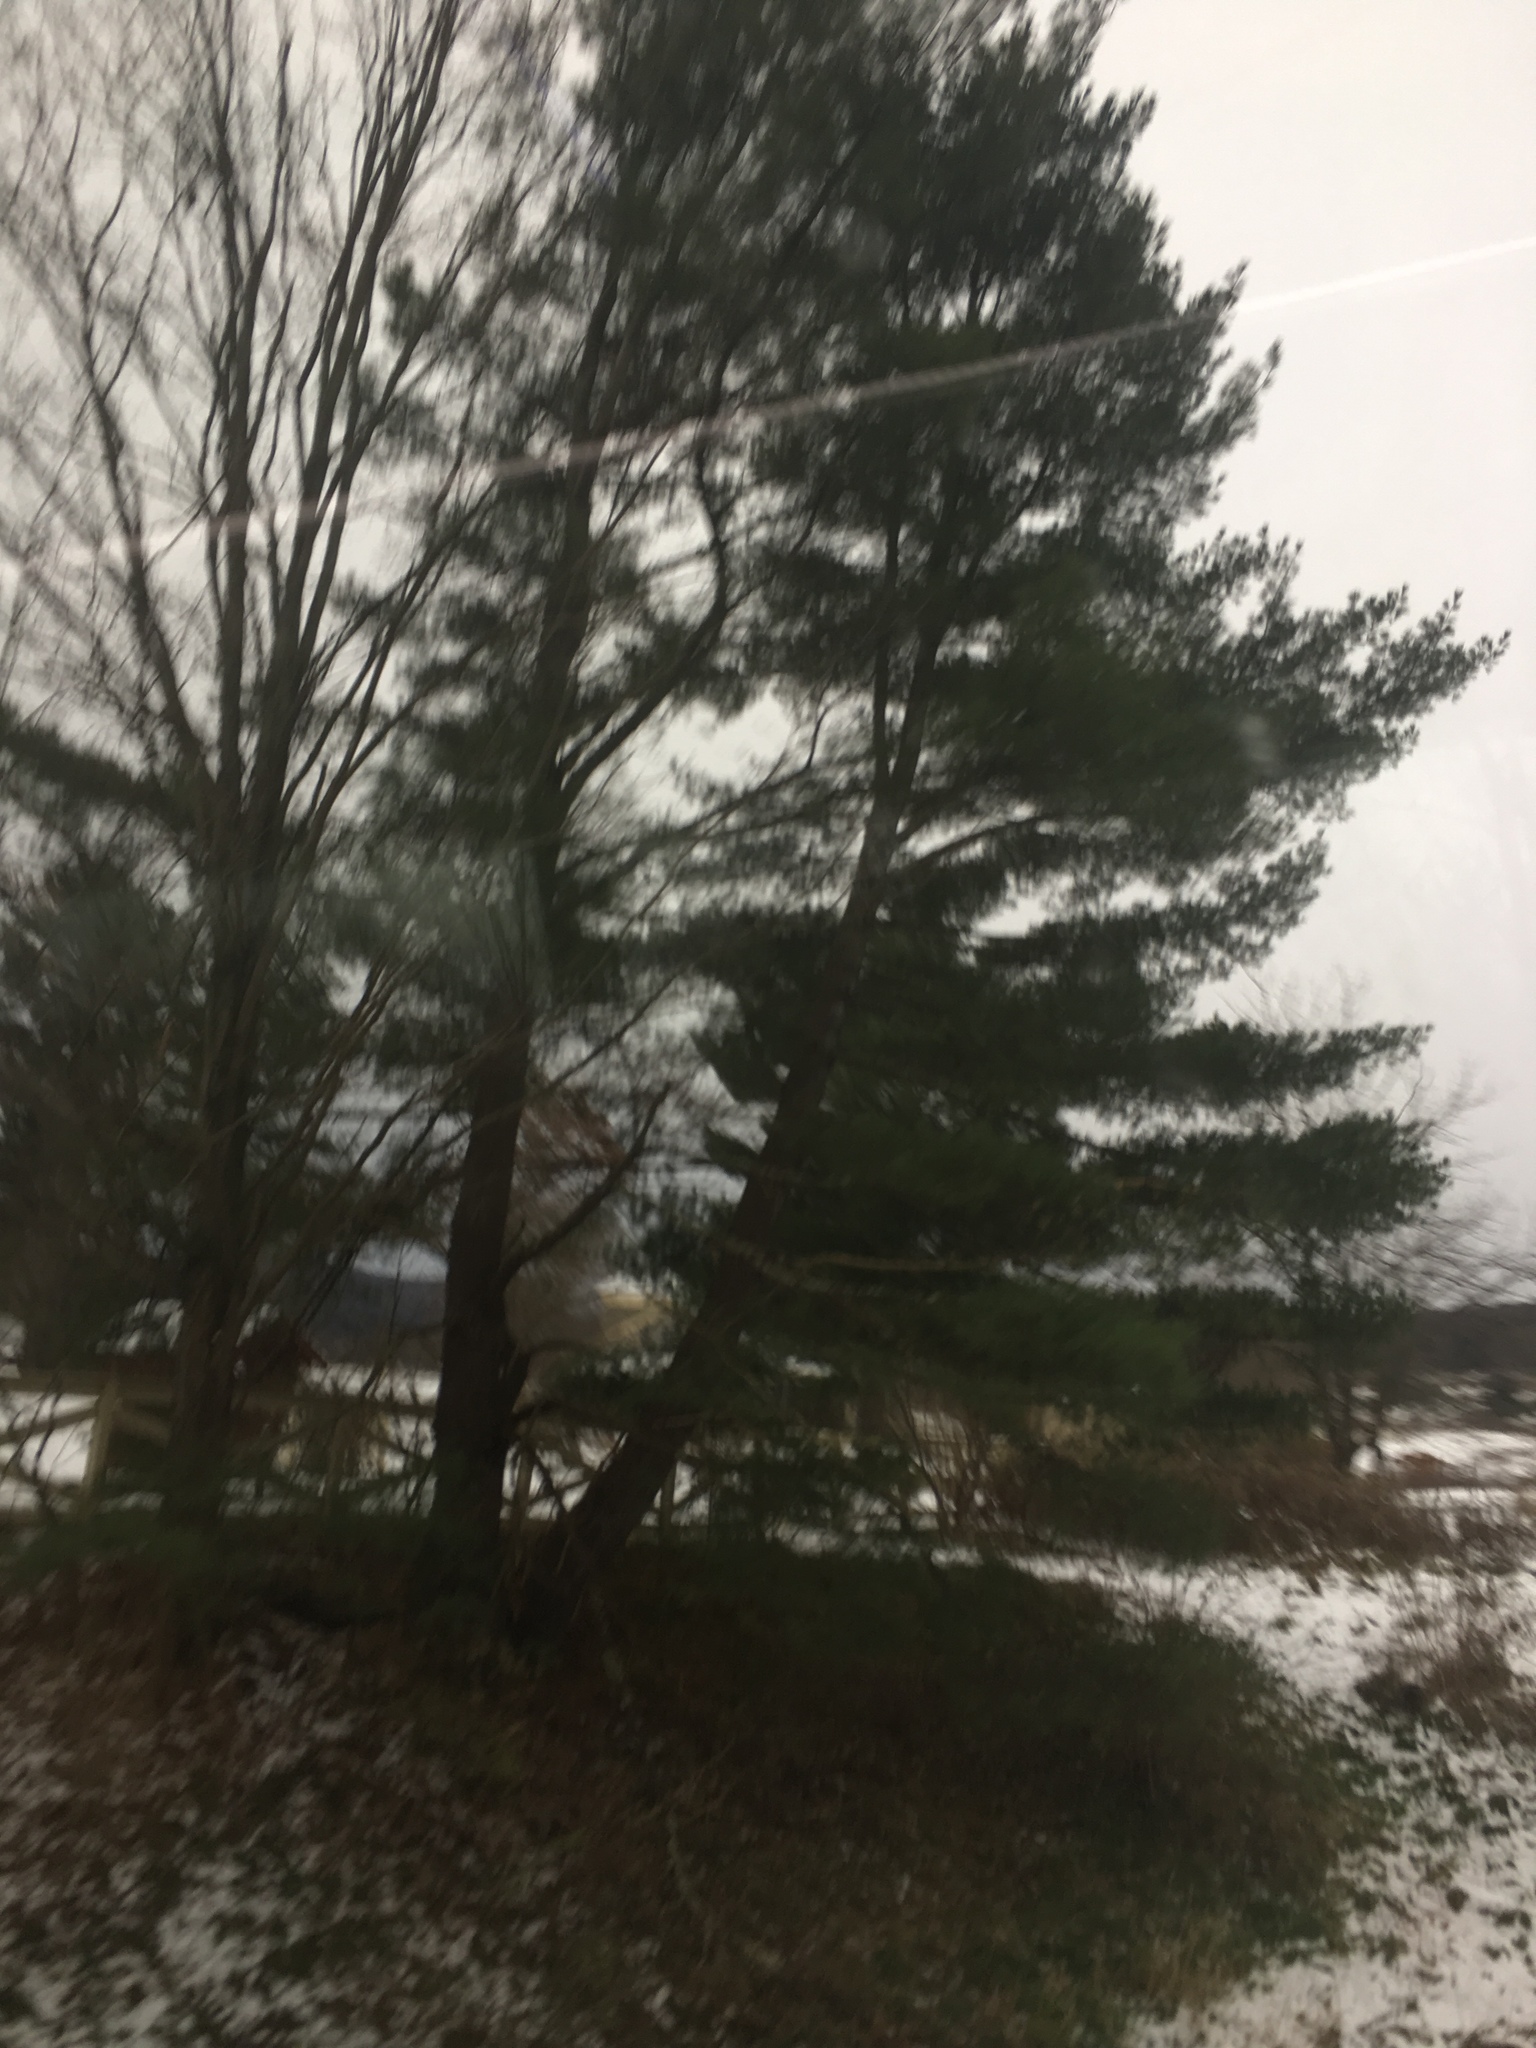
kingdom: Plantae
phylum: Tracheophyta
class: Pinopsida
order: Pinales
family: Pinaceae
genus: Pinus
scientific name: Pinus strobus
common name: Weymouth pine
